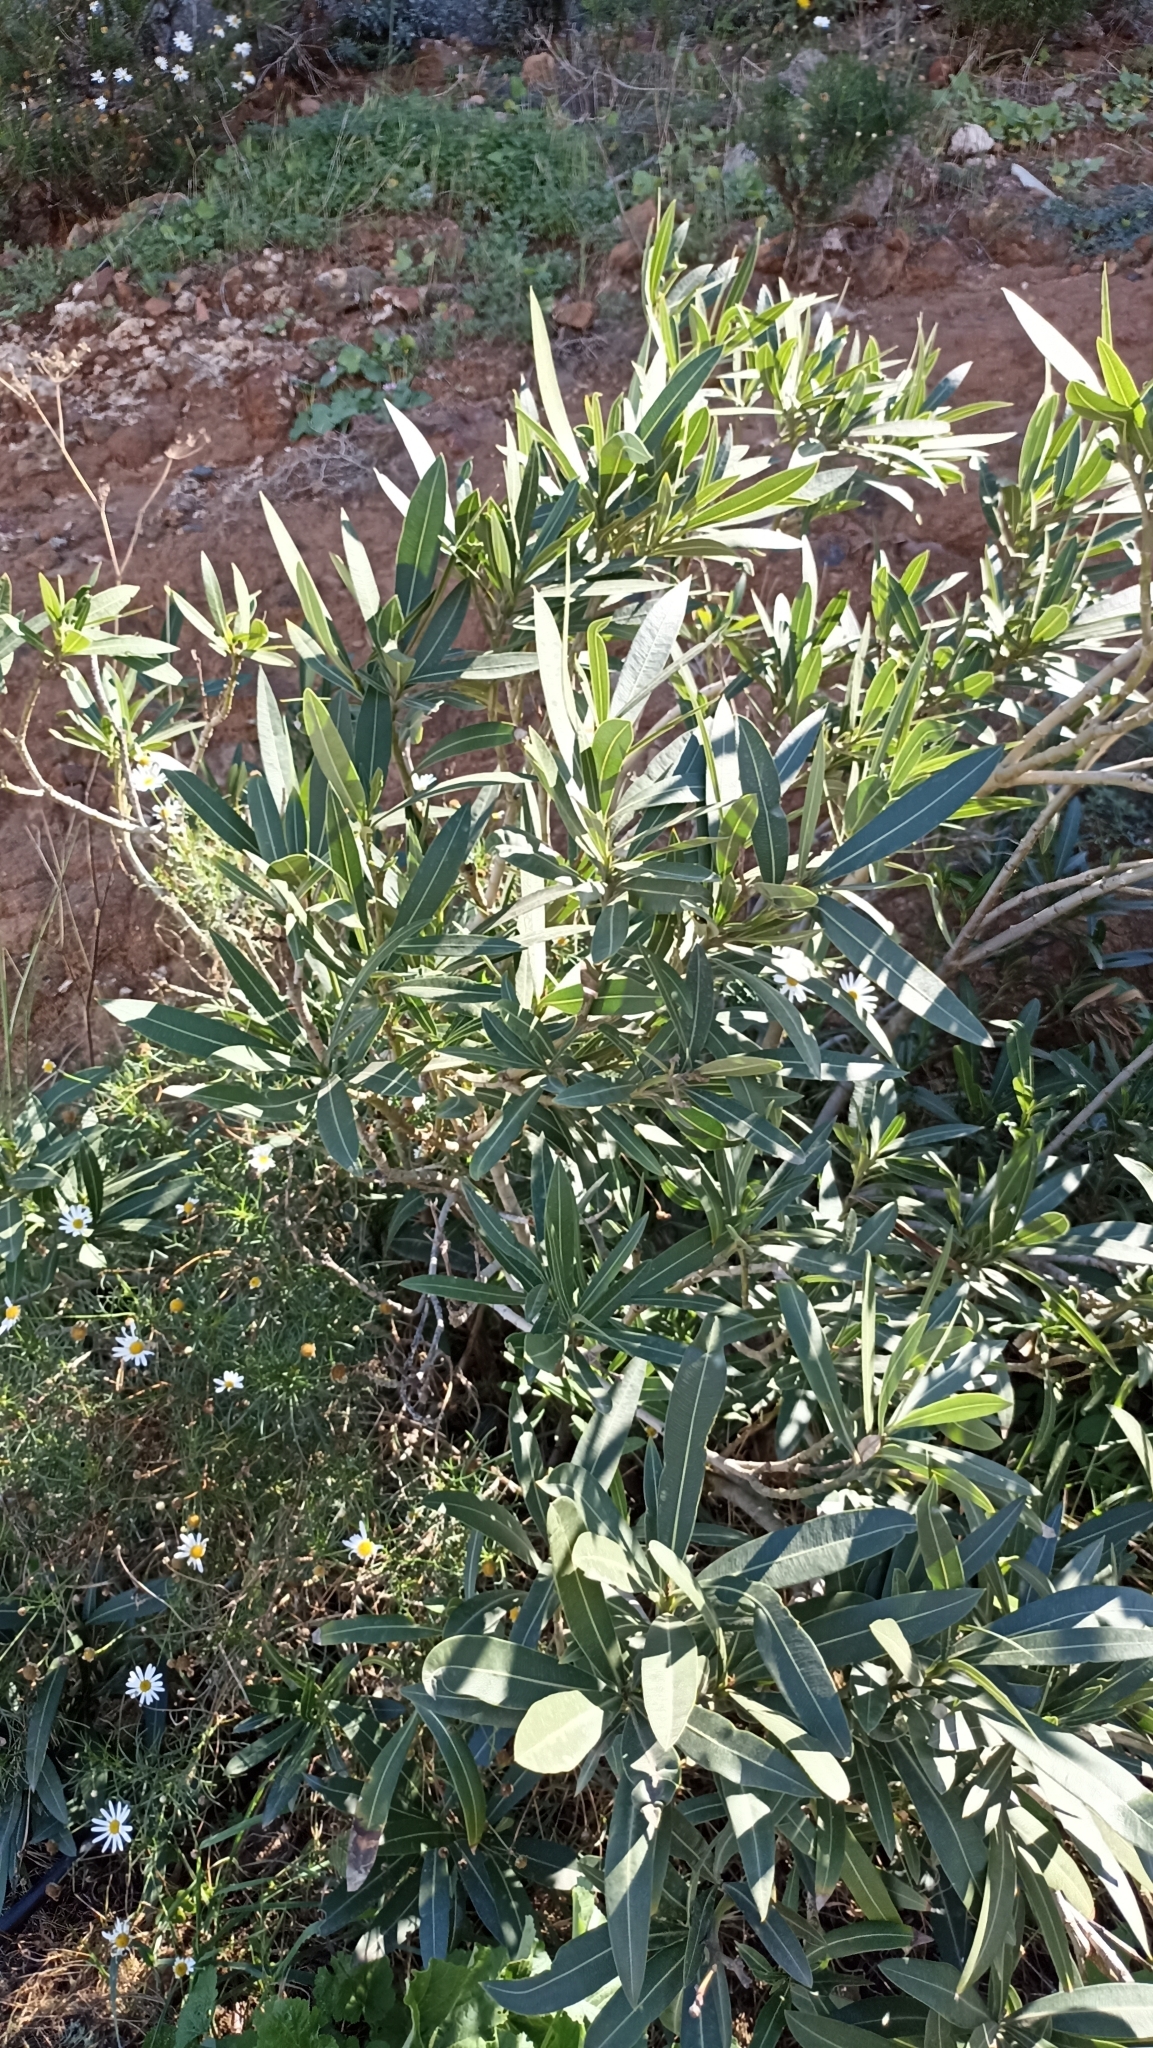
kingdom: Plantae
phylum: Tracheophyta
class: Magnoliopsida
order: Solanales
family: Convolvulaceae
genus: Convolvulus
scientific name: Convolvulus floridus
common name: Guadil
